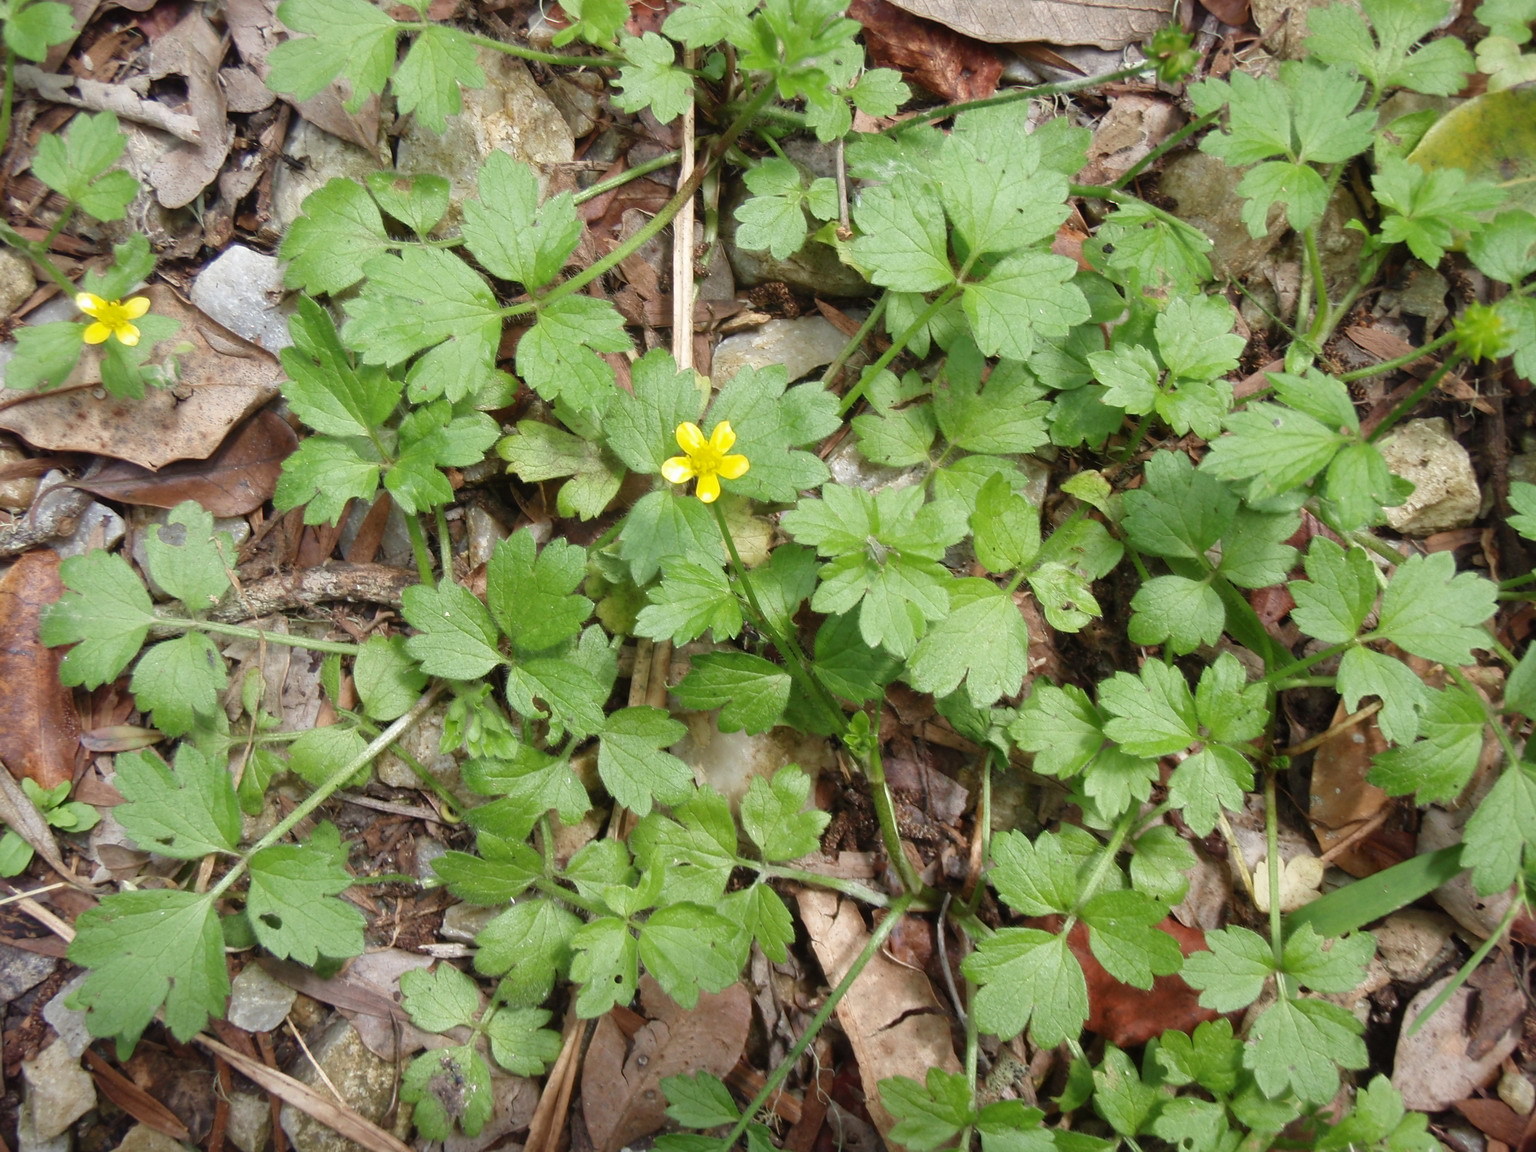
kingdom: Plantae
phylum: Tracheophyta
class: Magnoliopsida
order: Ranunculales
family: Ranunculaceae
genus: Ranunculus
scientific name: Ranunculus multifidus
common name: Wild buttercup
